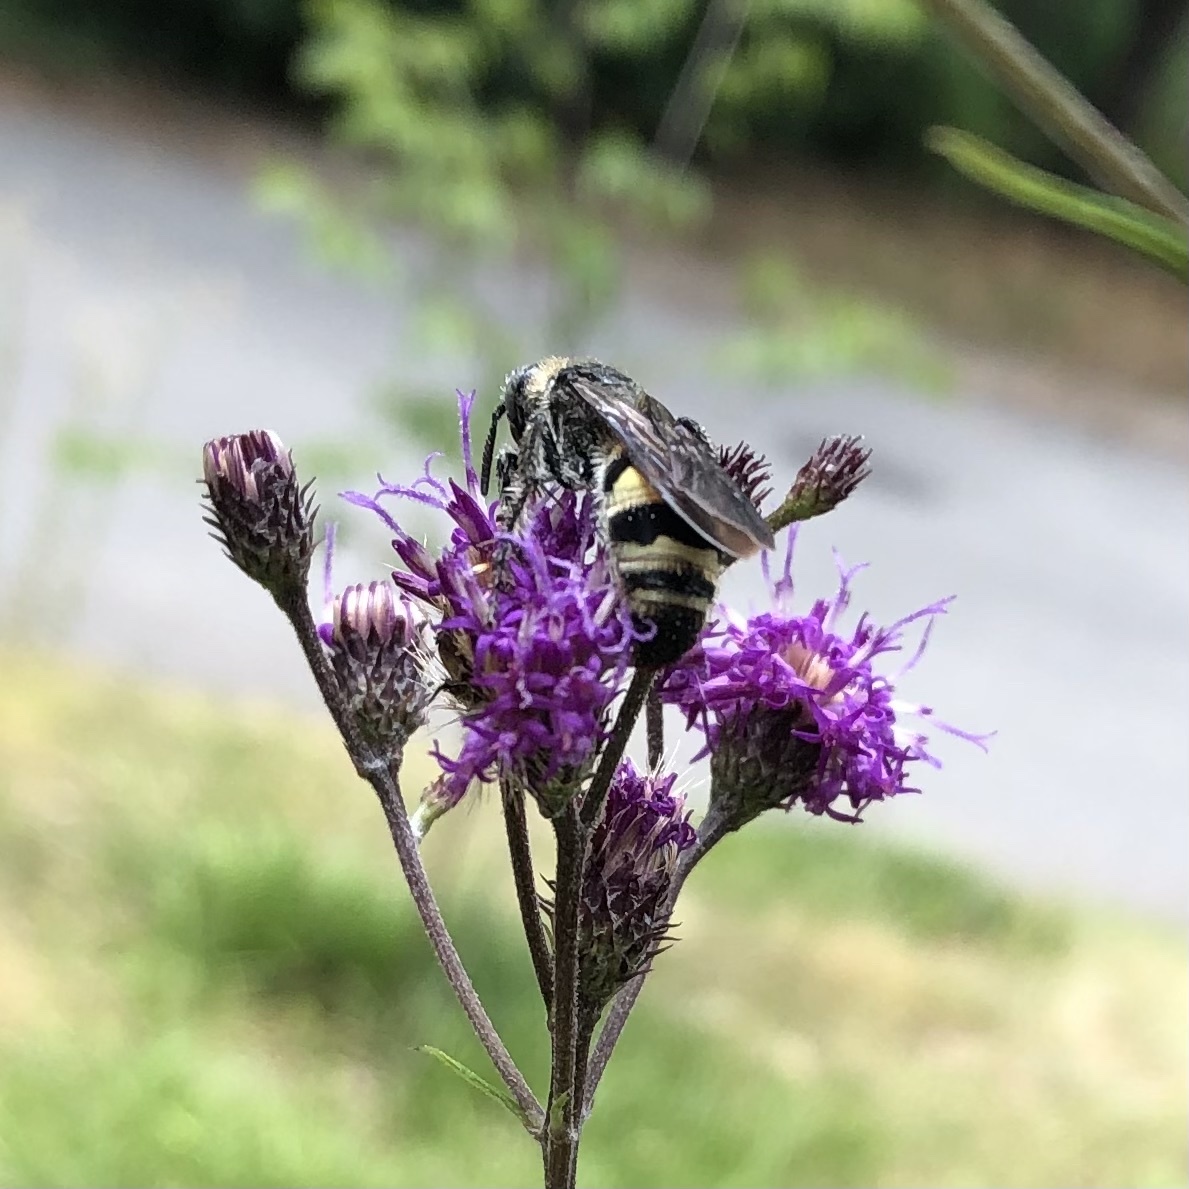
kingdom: Animalia
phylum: Arthropoda
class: Insecta
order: Hymenoptera
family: Scoliidae
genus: Dielis
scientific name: Dielis
